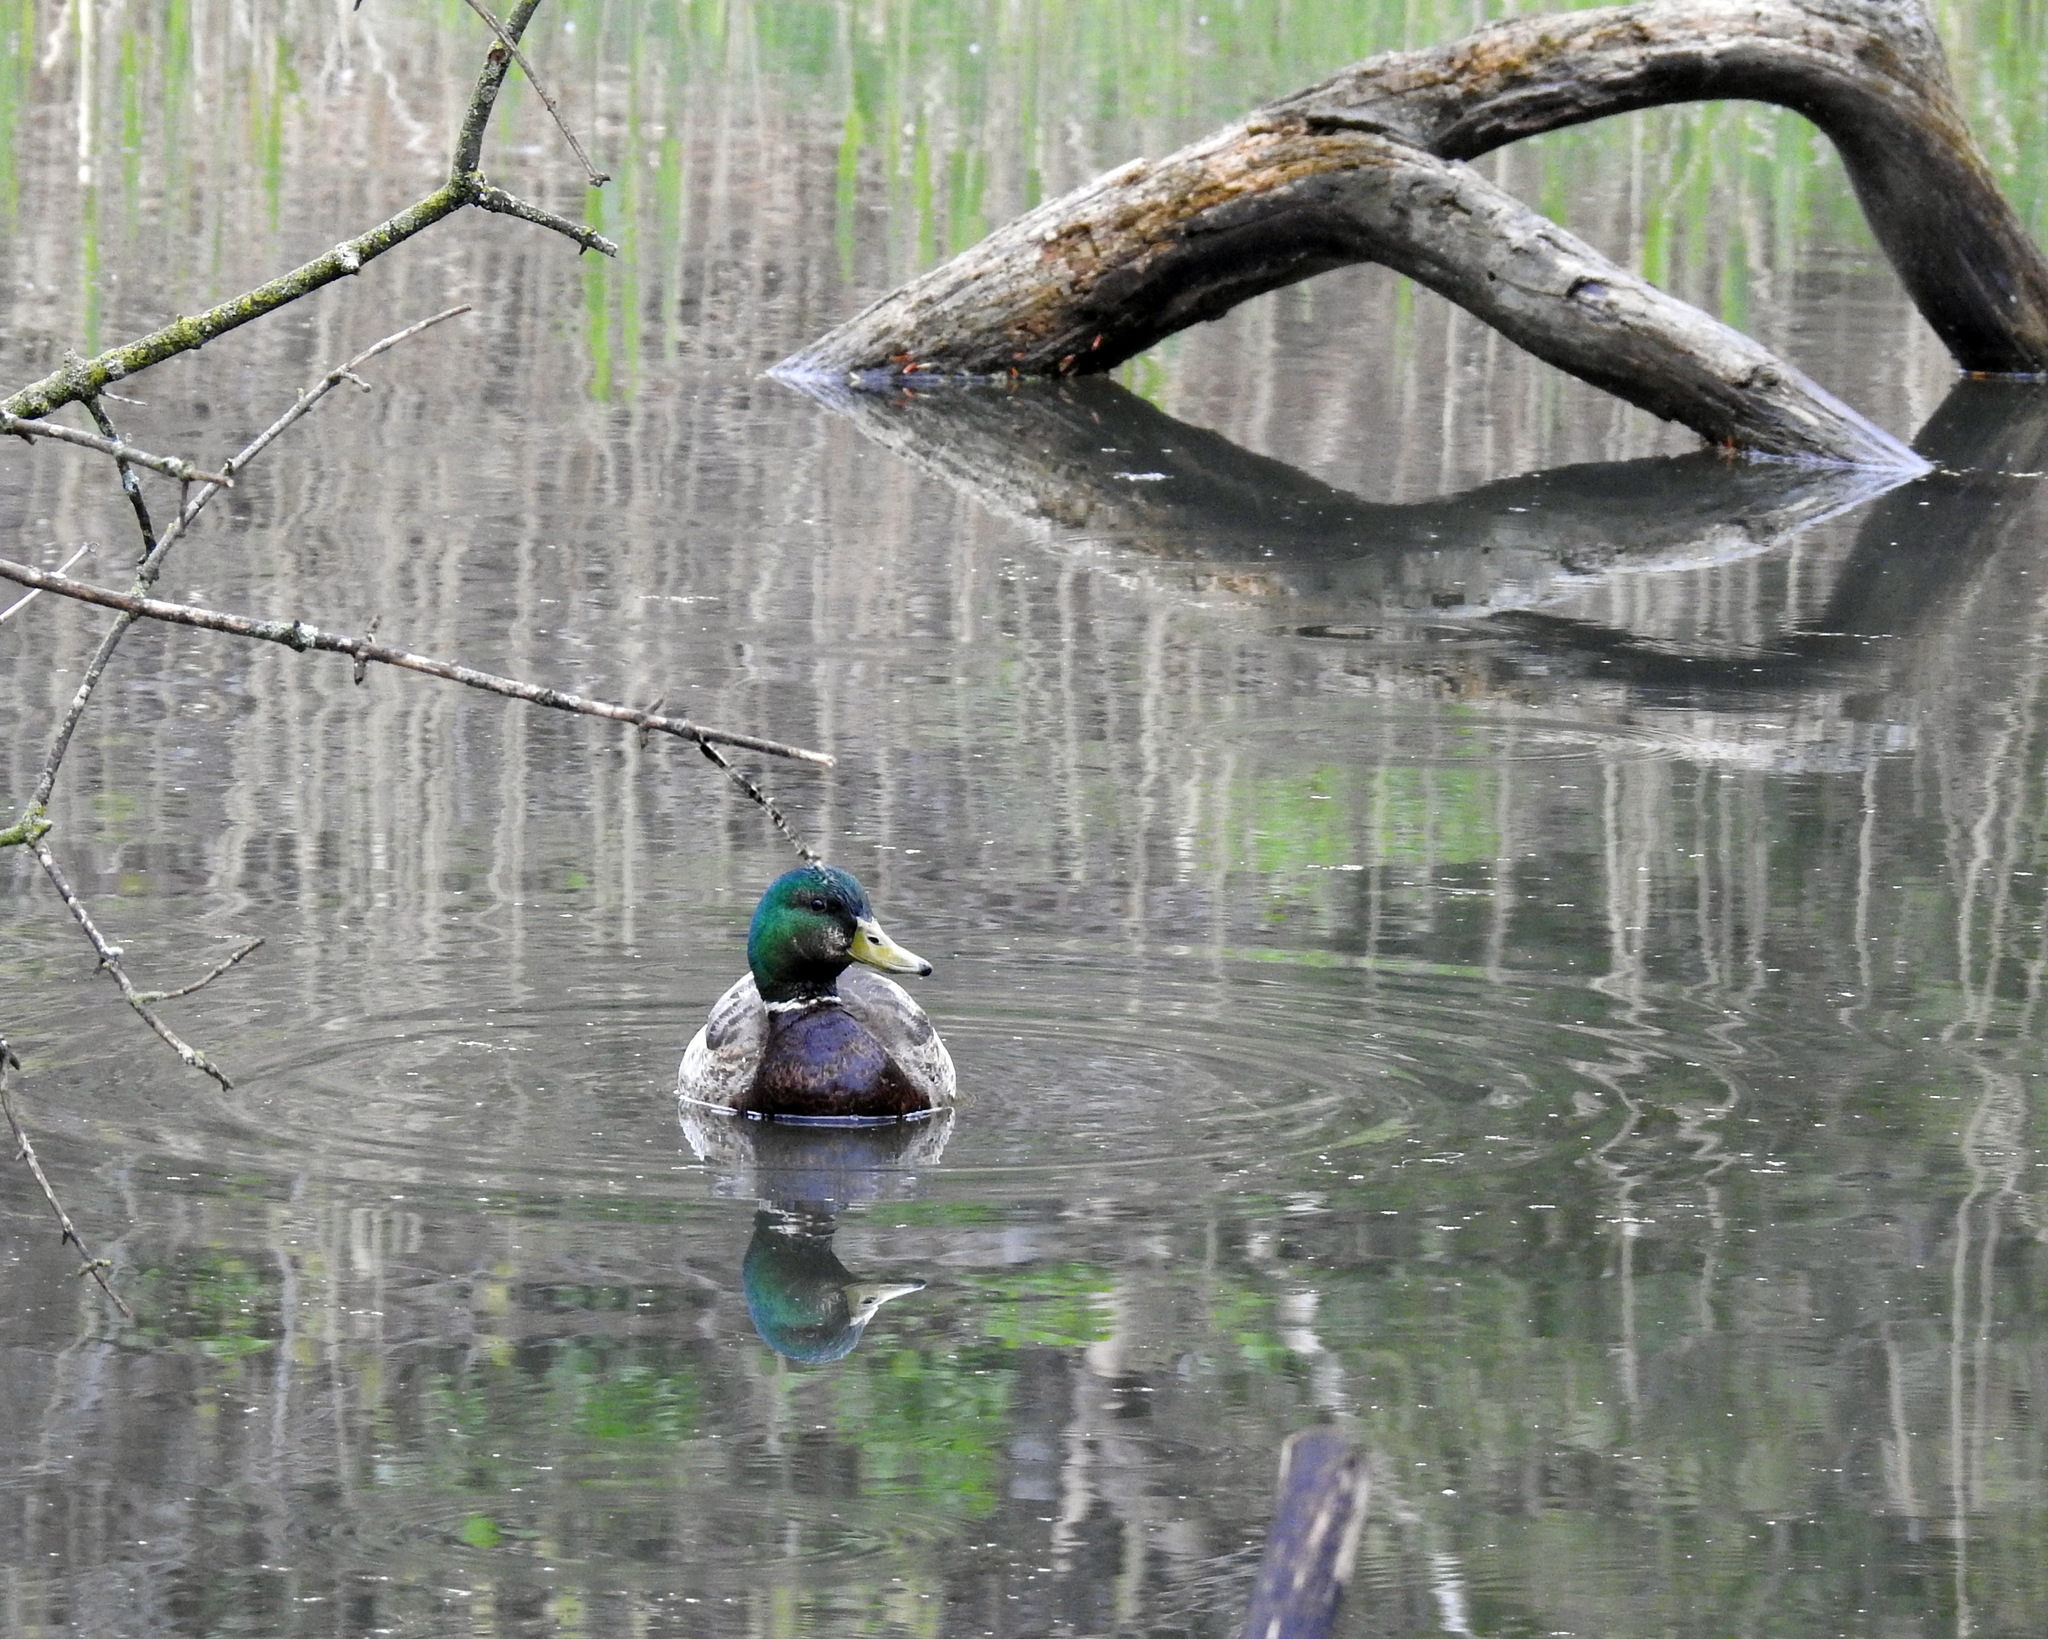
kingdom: Animalia
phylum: Chordata
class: Aves
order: Anseriformes
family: Anatidae
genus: Anas
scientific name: Anas platyrhynchos
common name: Mallard
